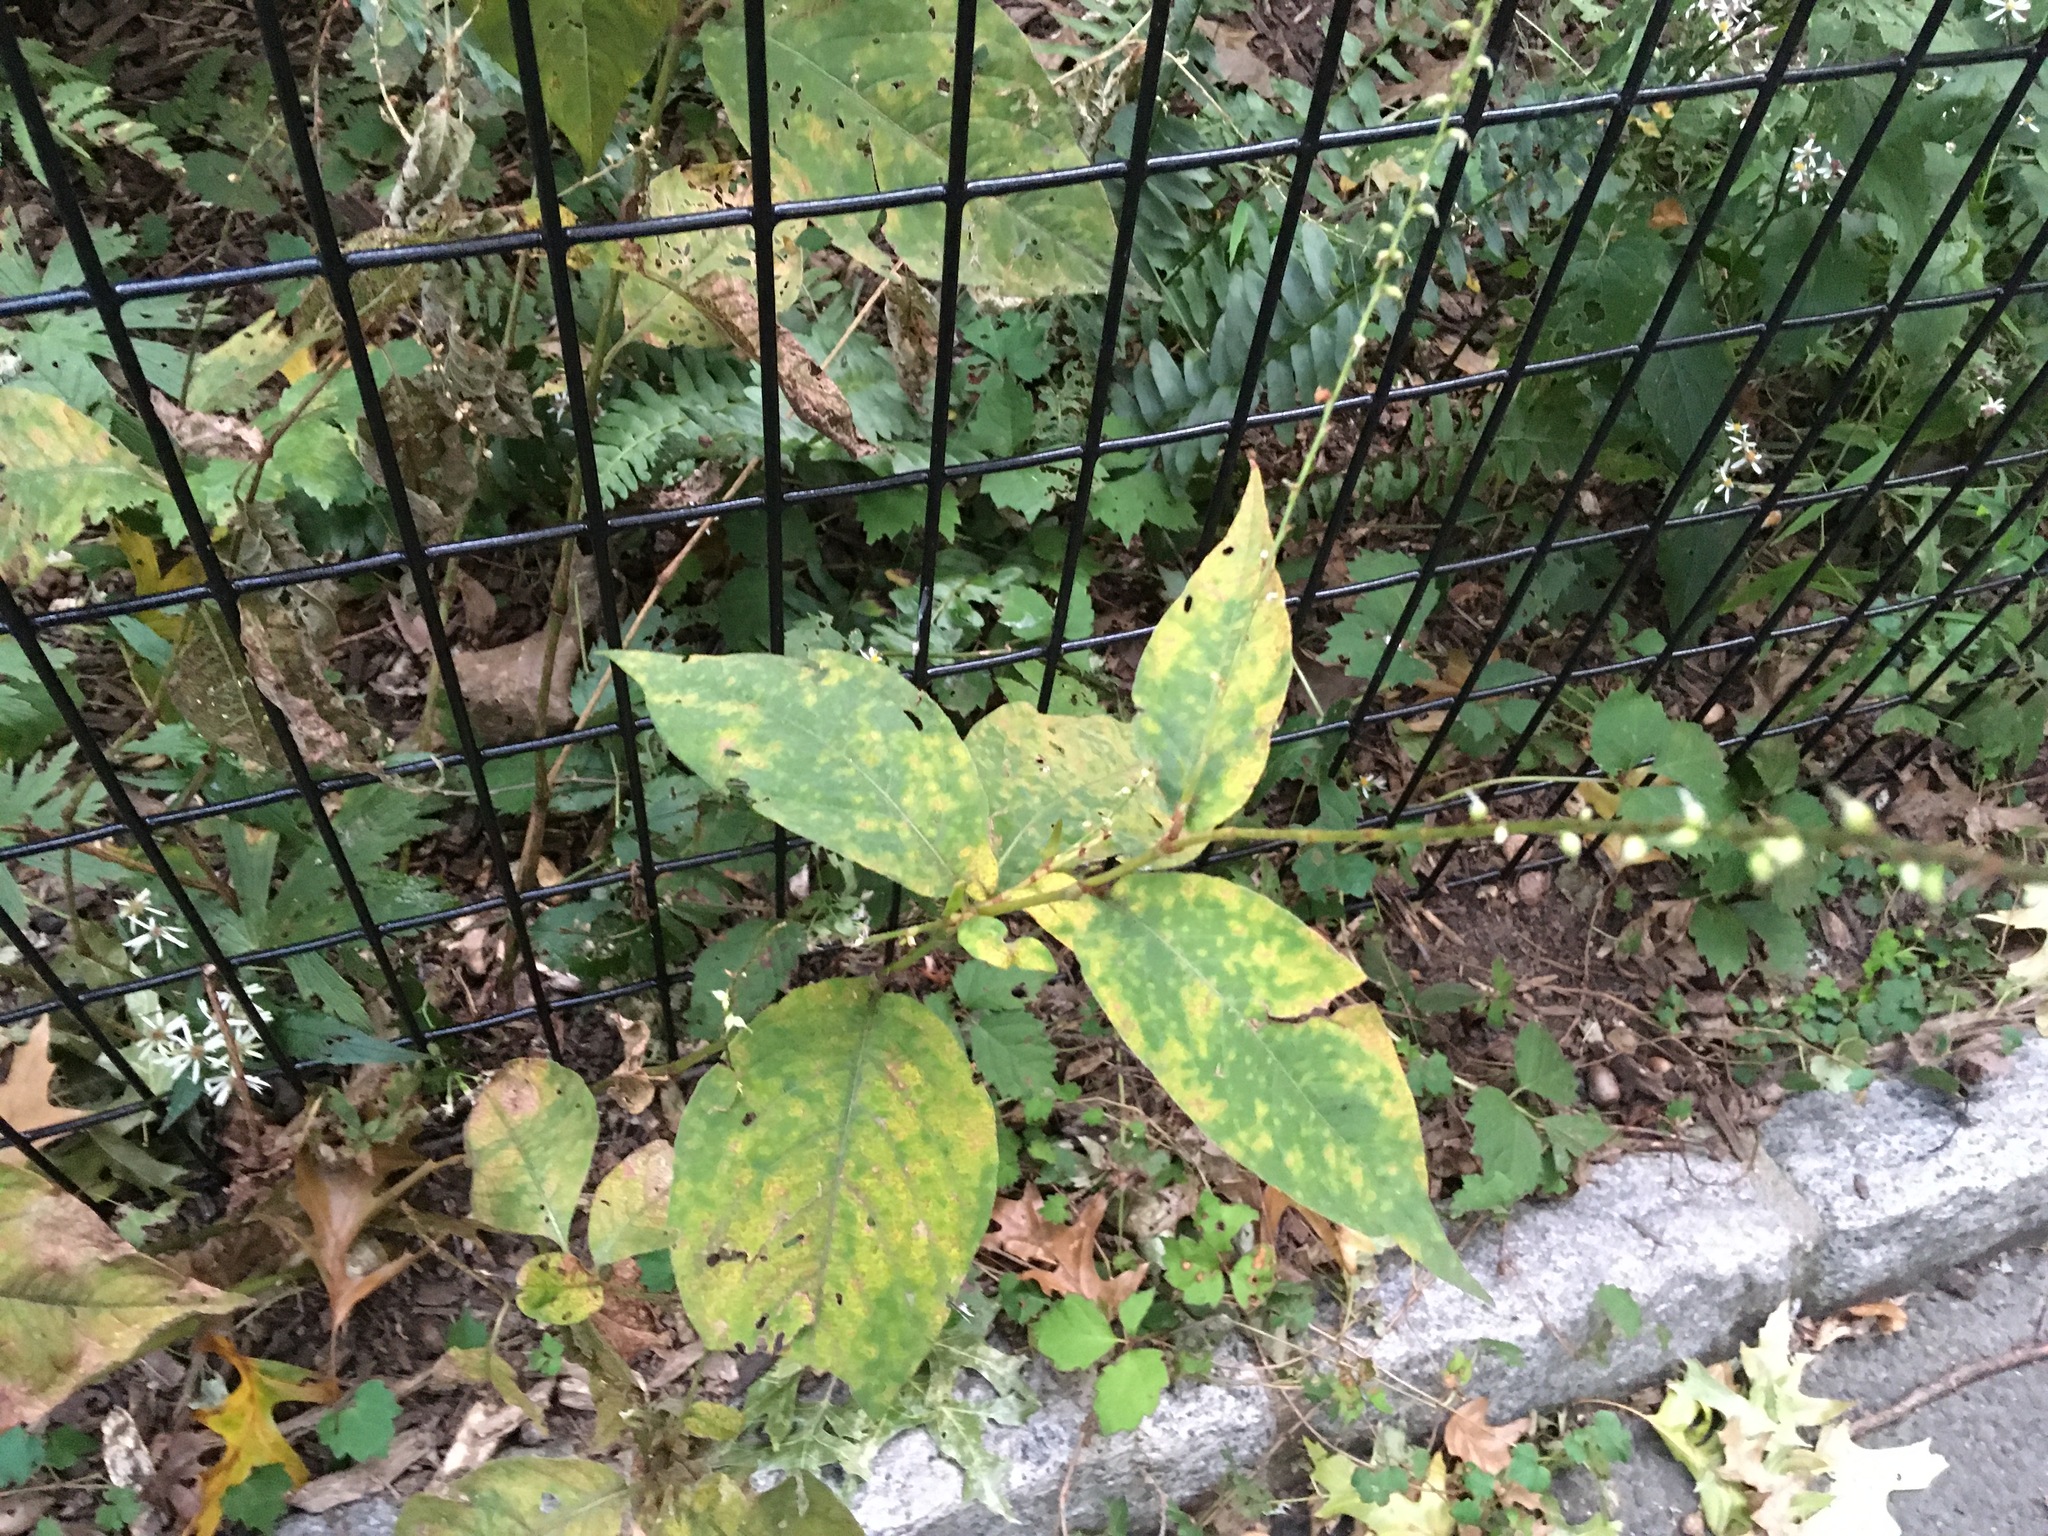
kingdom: Plantae
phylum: Tracheophyta
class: Magnoliopsida
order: Caryophyllales
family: Polygonaceae
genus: Persicaria
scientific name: Persicaria virginiana
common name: Jumpseed
